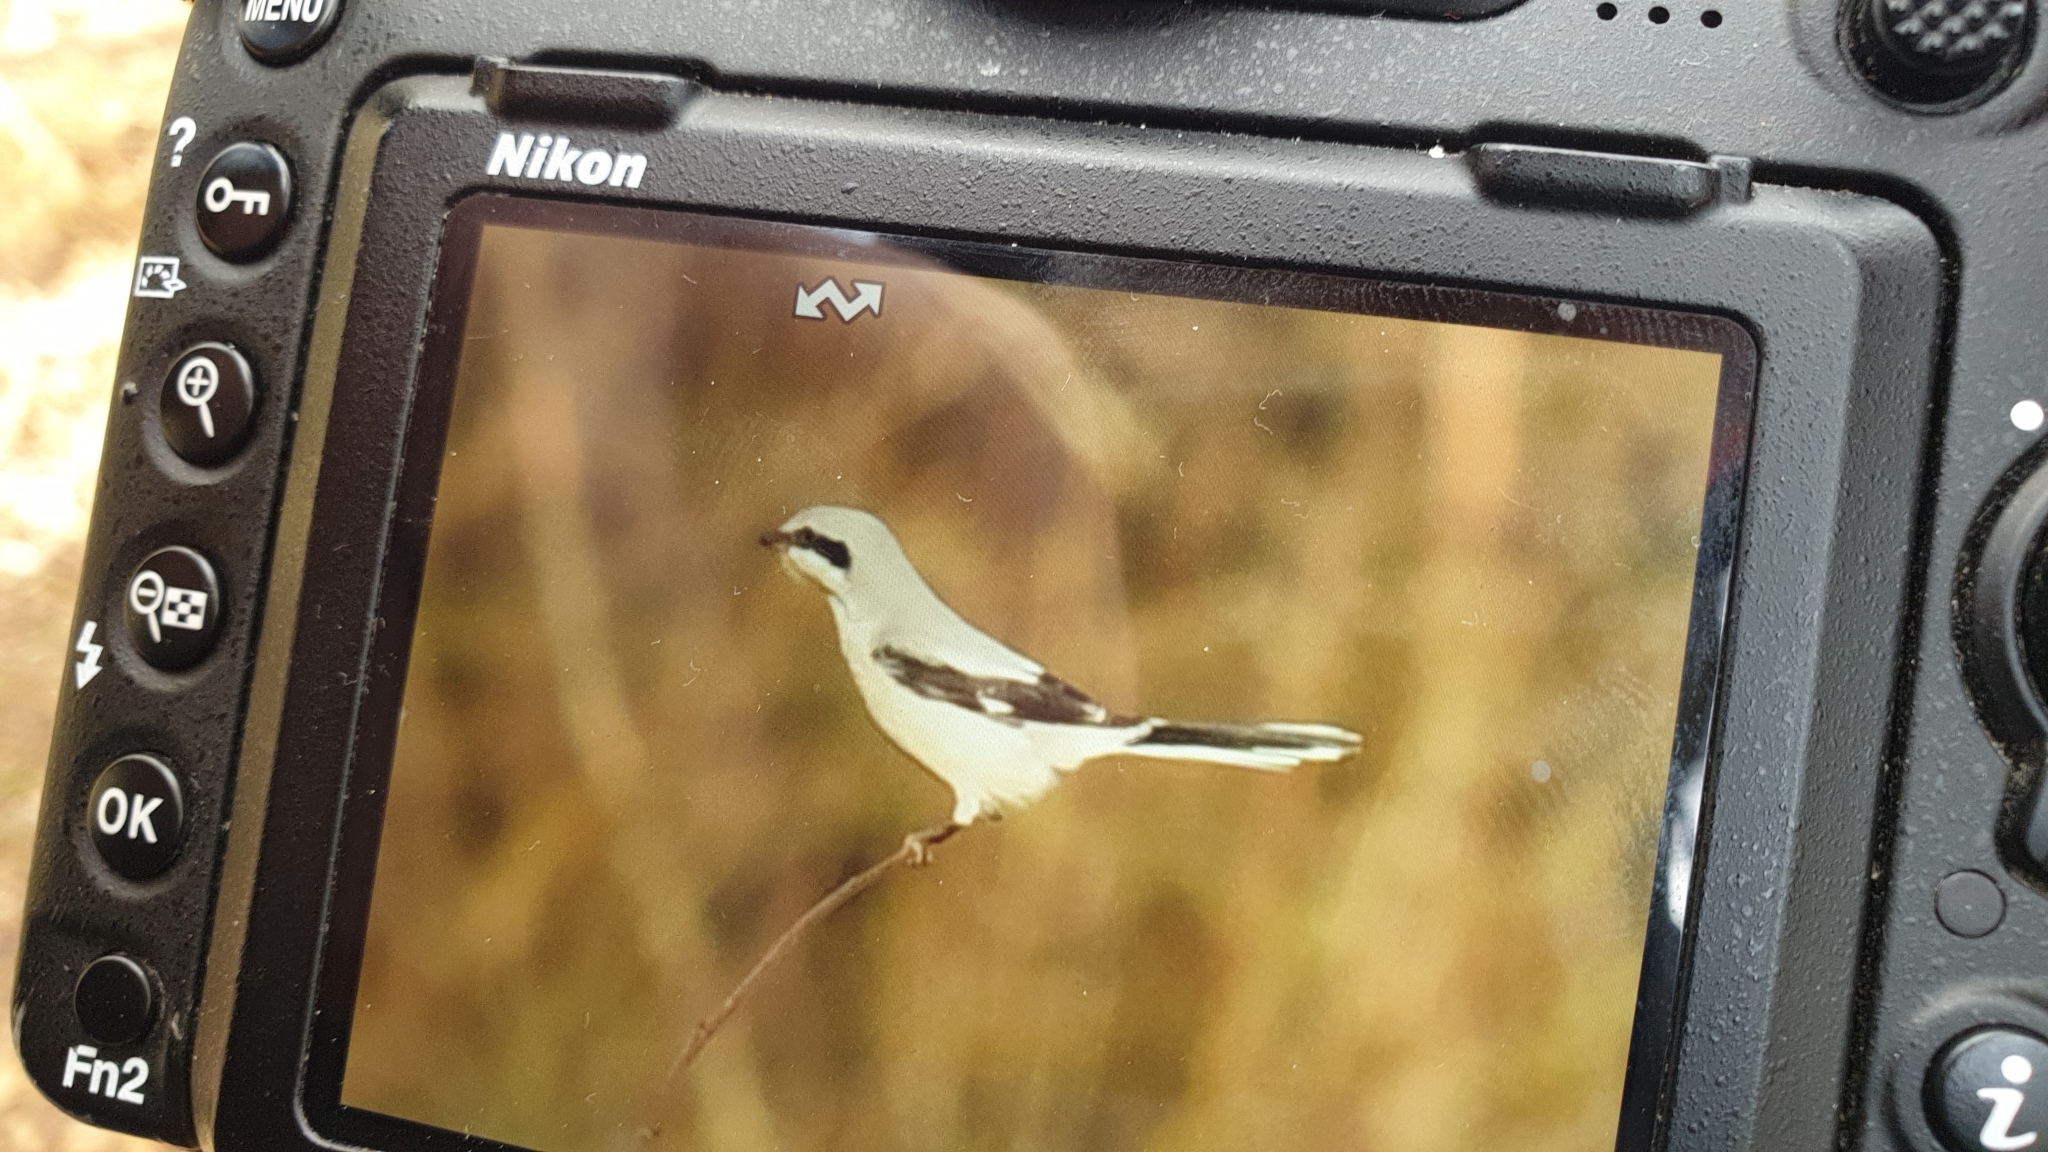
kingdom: Animalia
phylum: Chordata
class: Aves
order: Passeriformes
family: Laniidae
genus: Lanius
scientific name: Lanius excubitor
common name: Great grey shrike
